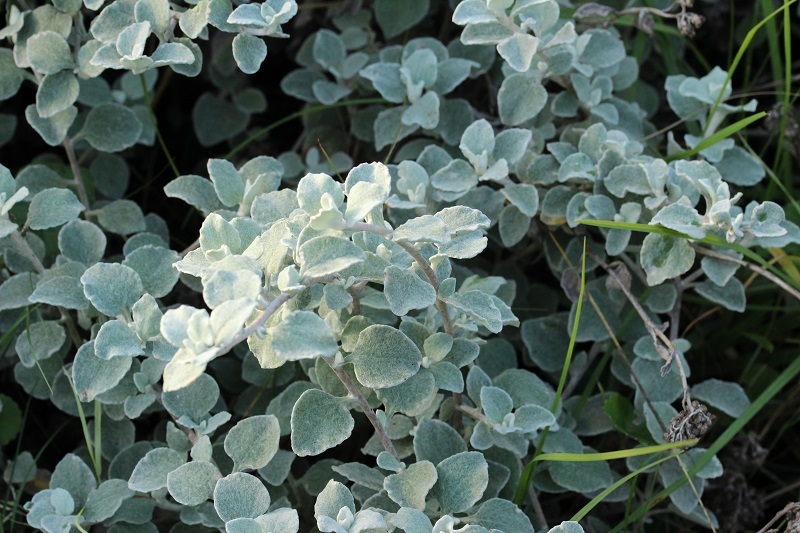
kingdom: Plantae
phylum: Tracheophyta
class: Magnoliopsida
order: Asterales
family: Asteraceae
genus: Helichrysum
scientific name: Helichrysum petiolare
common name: Licorice-plant
